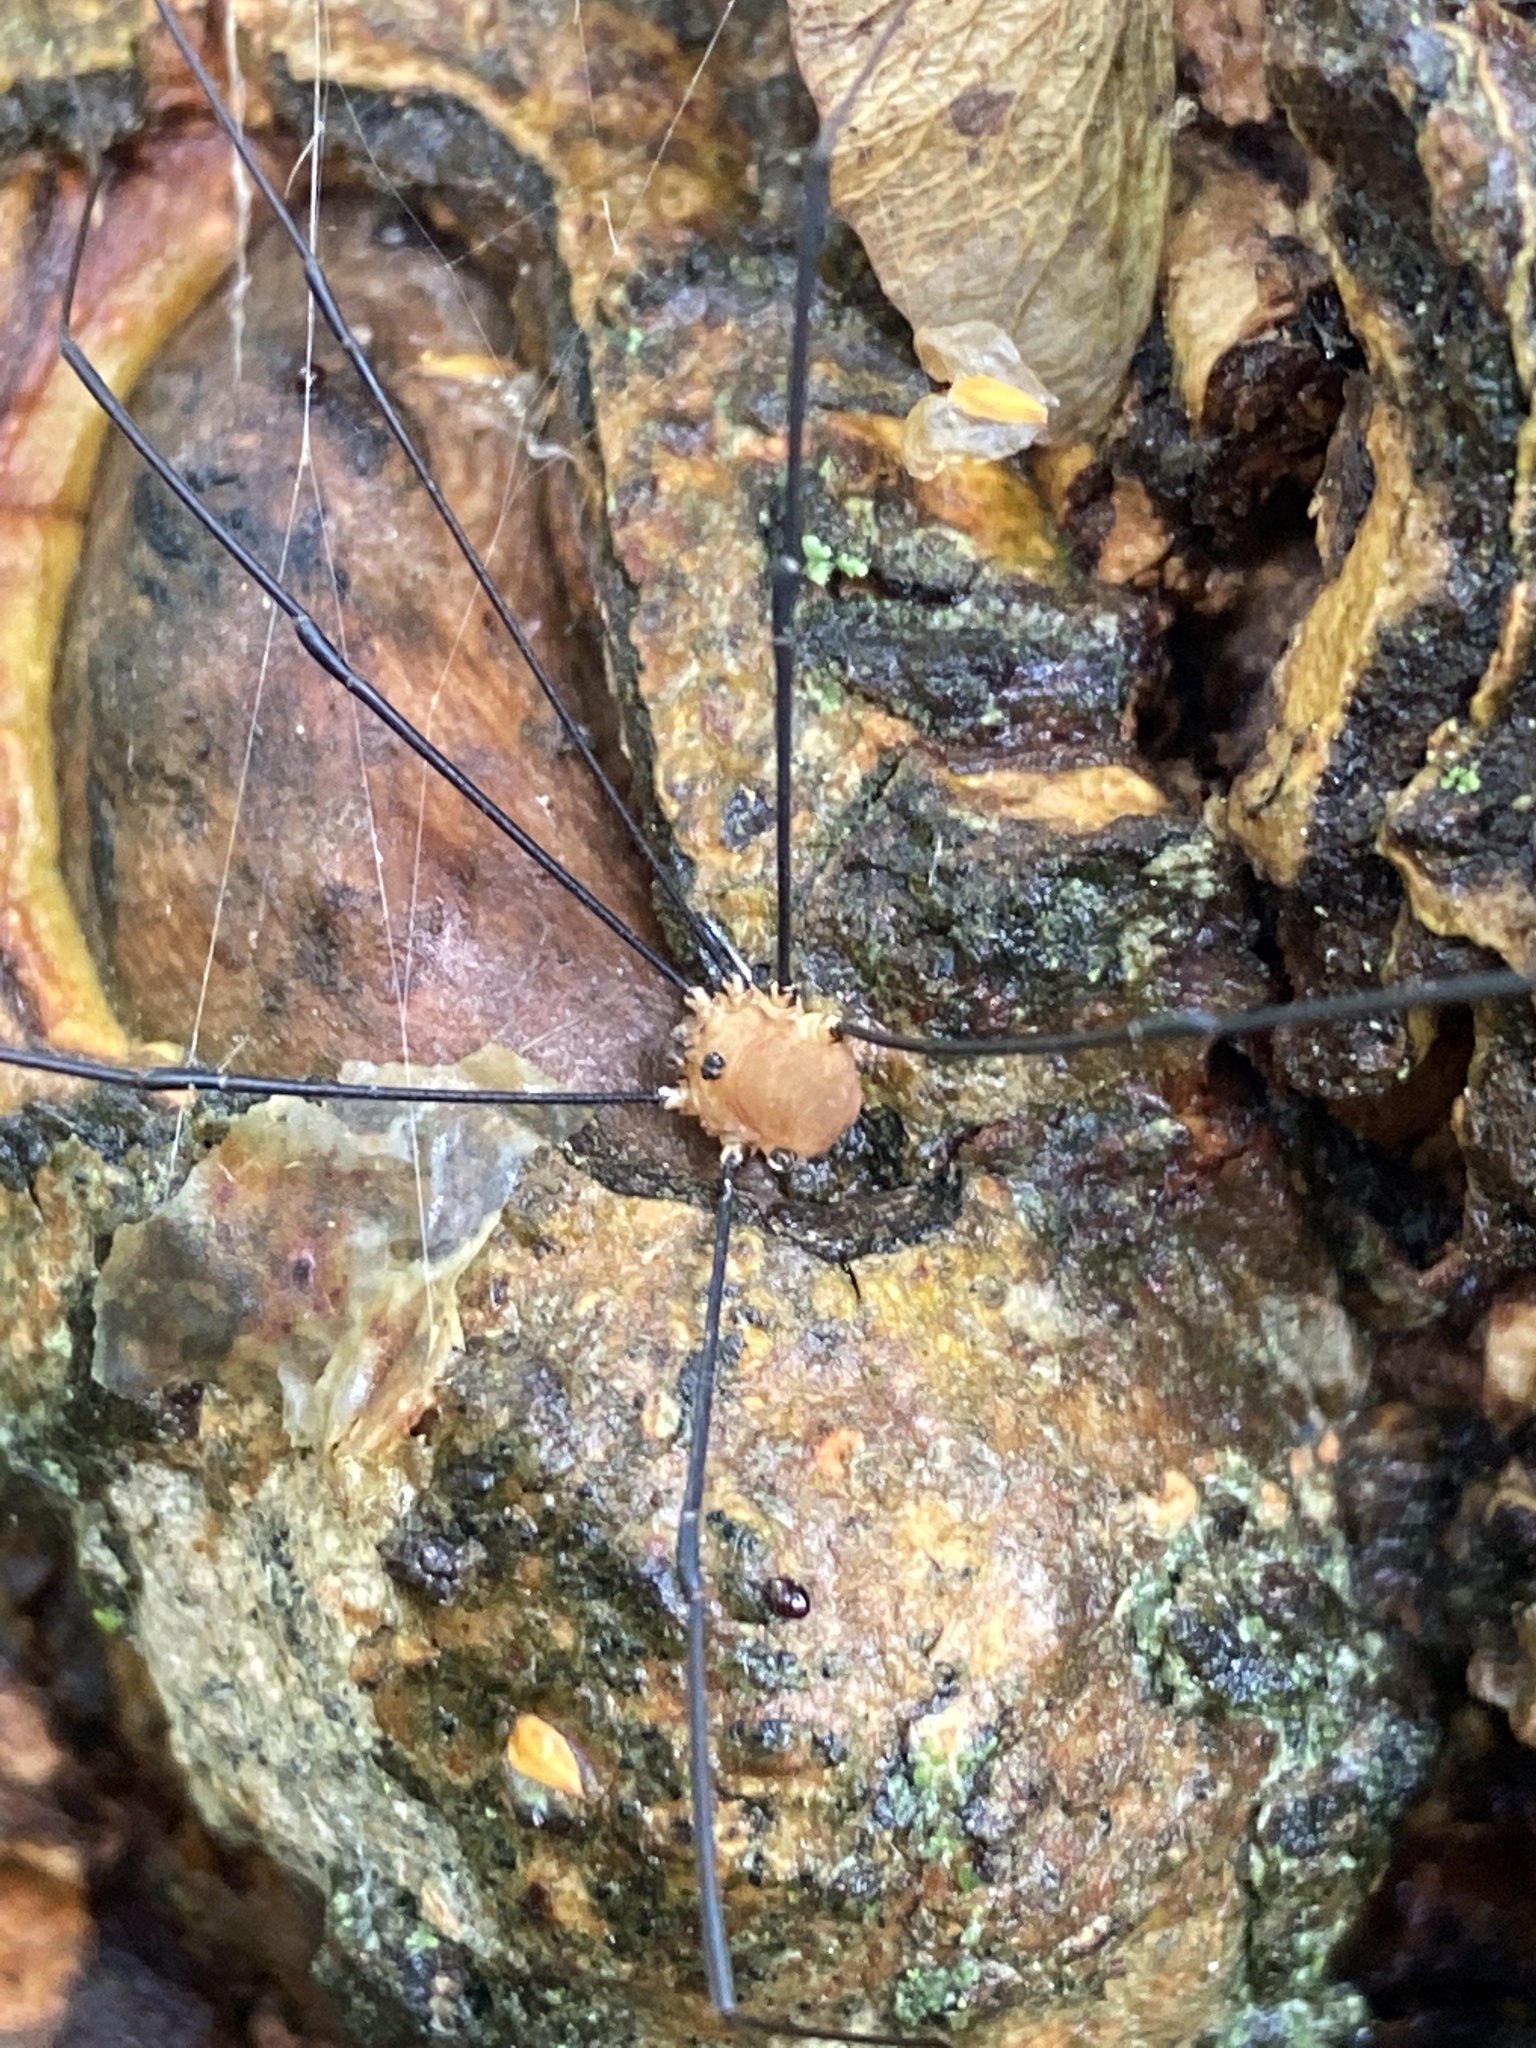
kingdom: Animalia
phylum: Arthropoda
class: Arachnida
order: Opiliones
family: Sclerosomatidae
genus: Leiobunum
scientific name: Leiobunum rotundum
